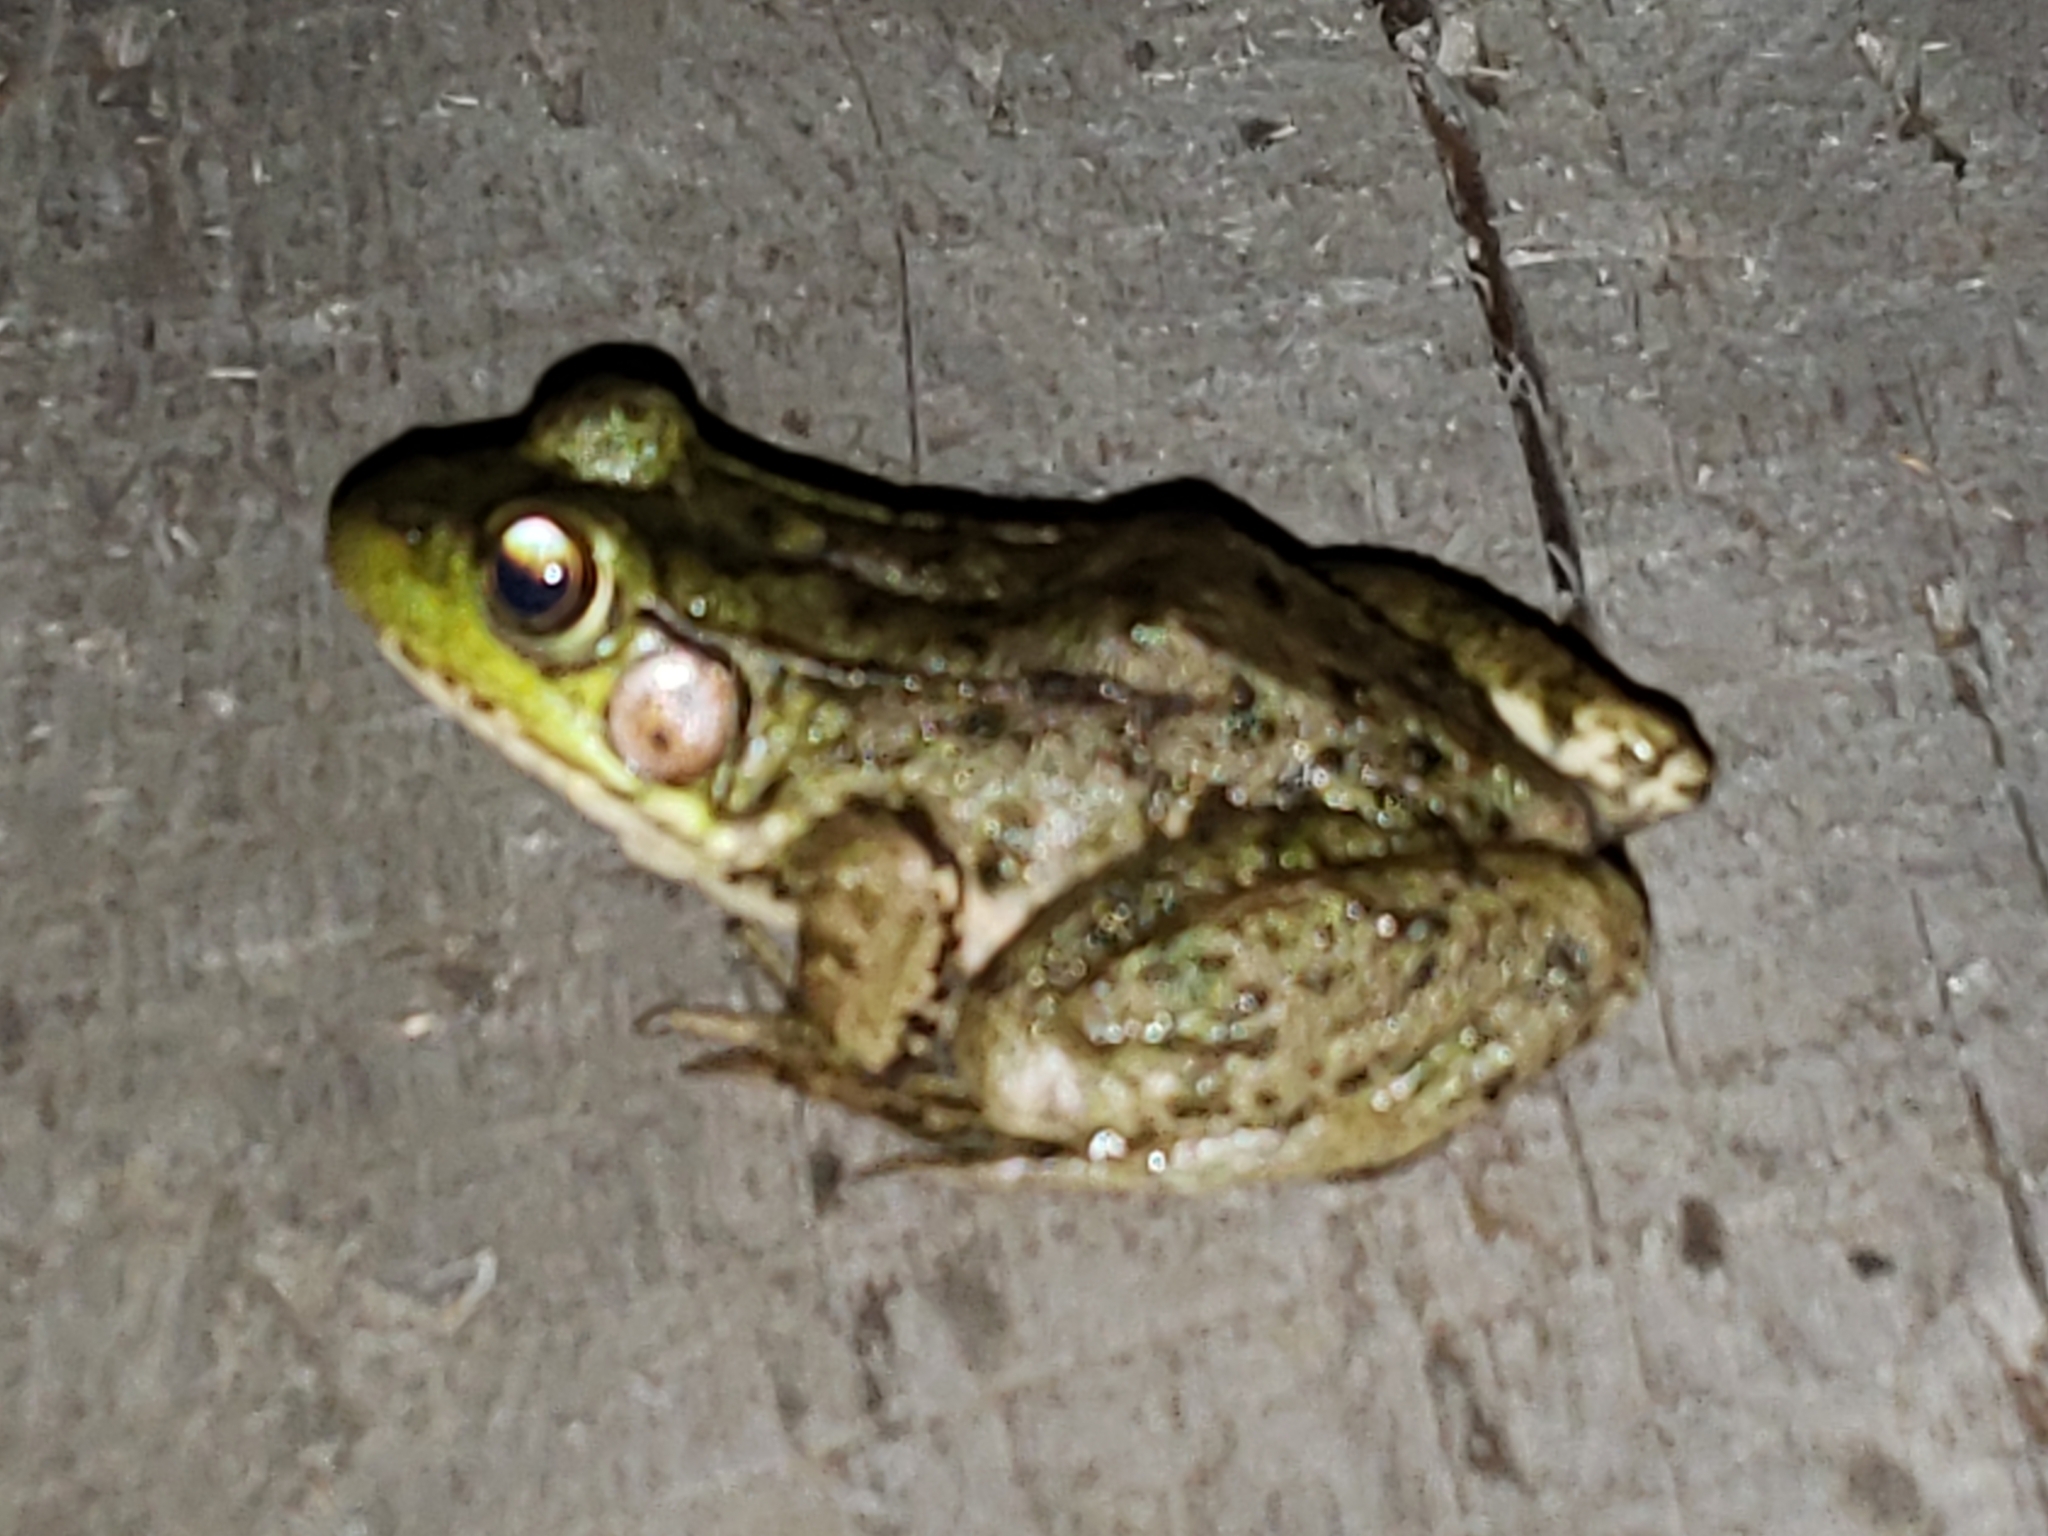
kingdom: Animalia
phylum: Chordata
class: Amphibia
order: Anura
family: Ranidae
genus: Lithobates
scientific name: Lithobates clamitans
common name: Green frog
